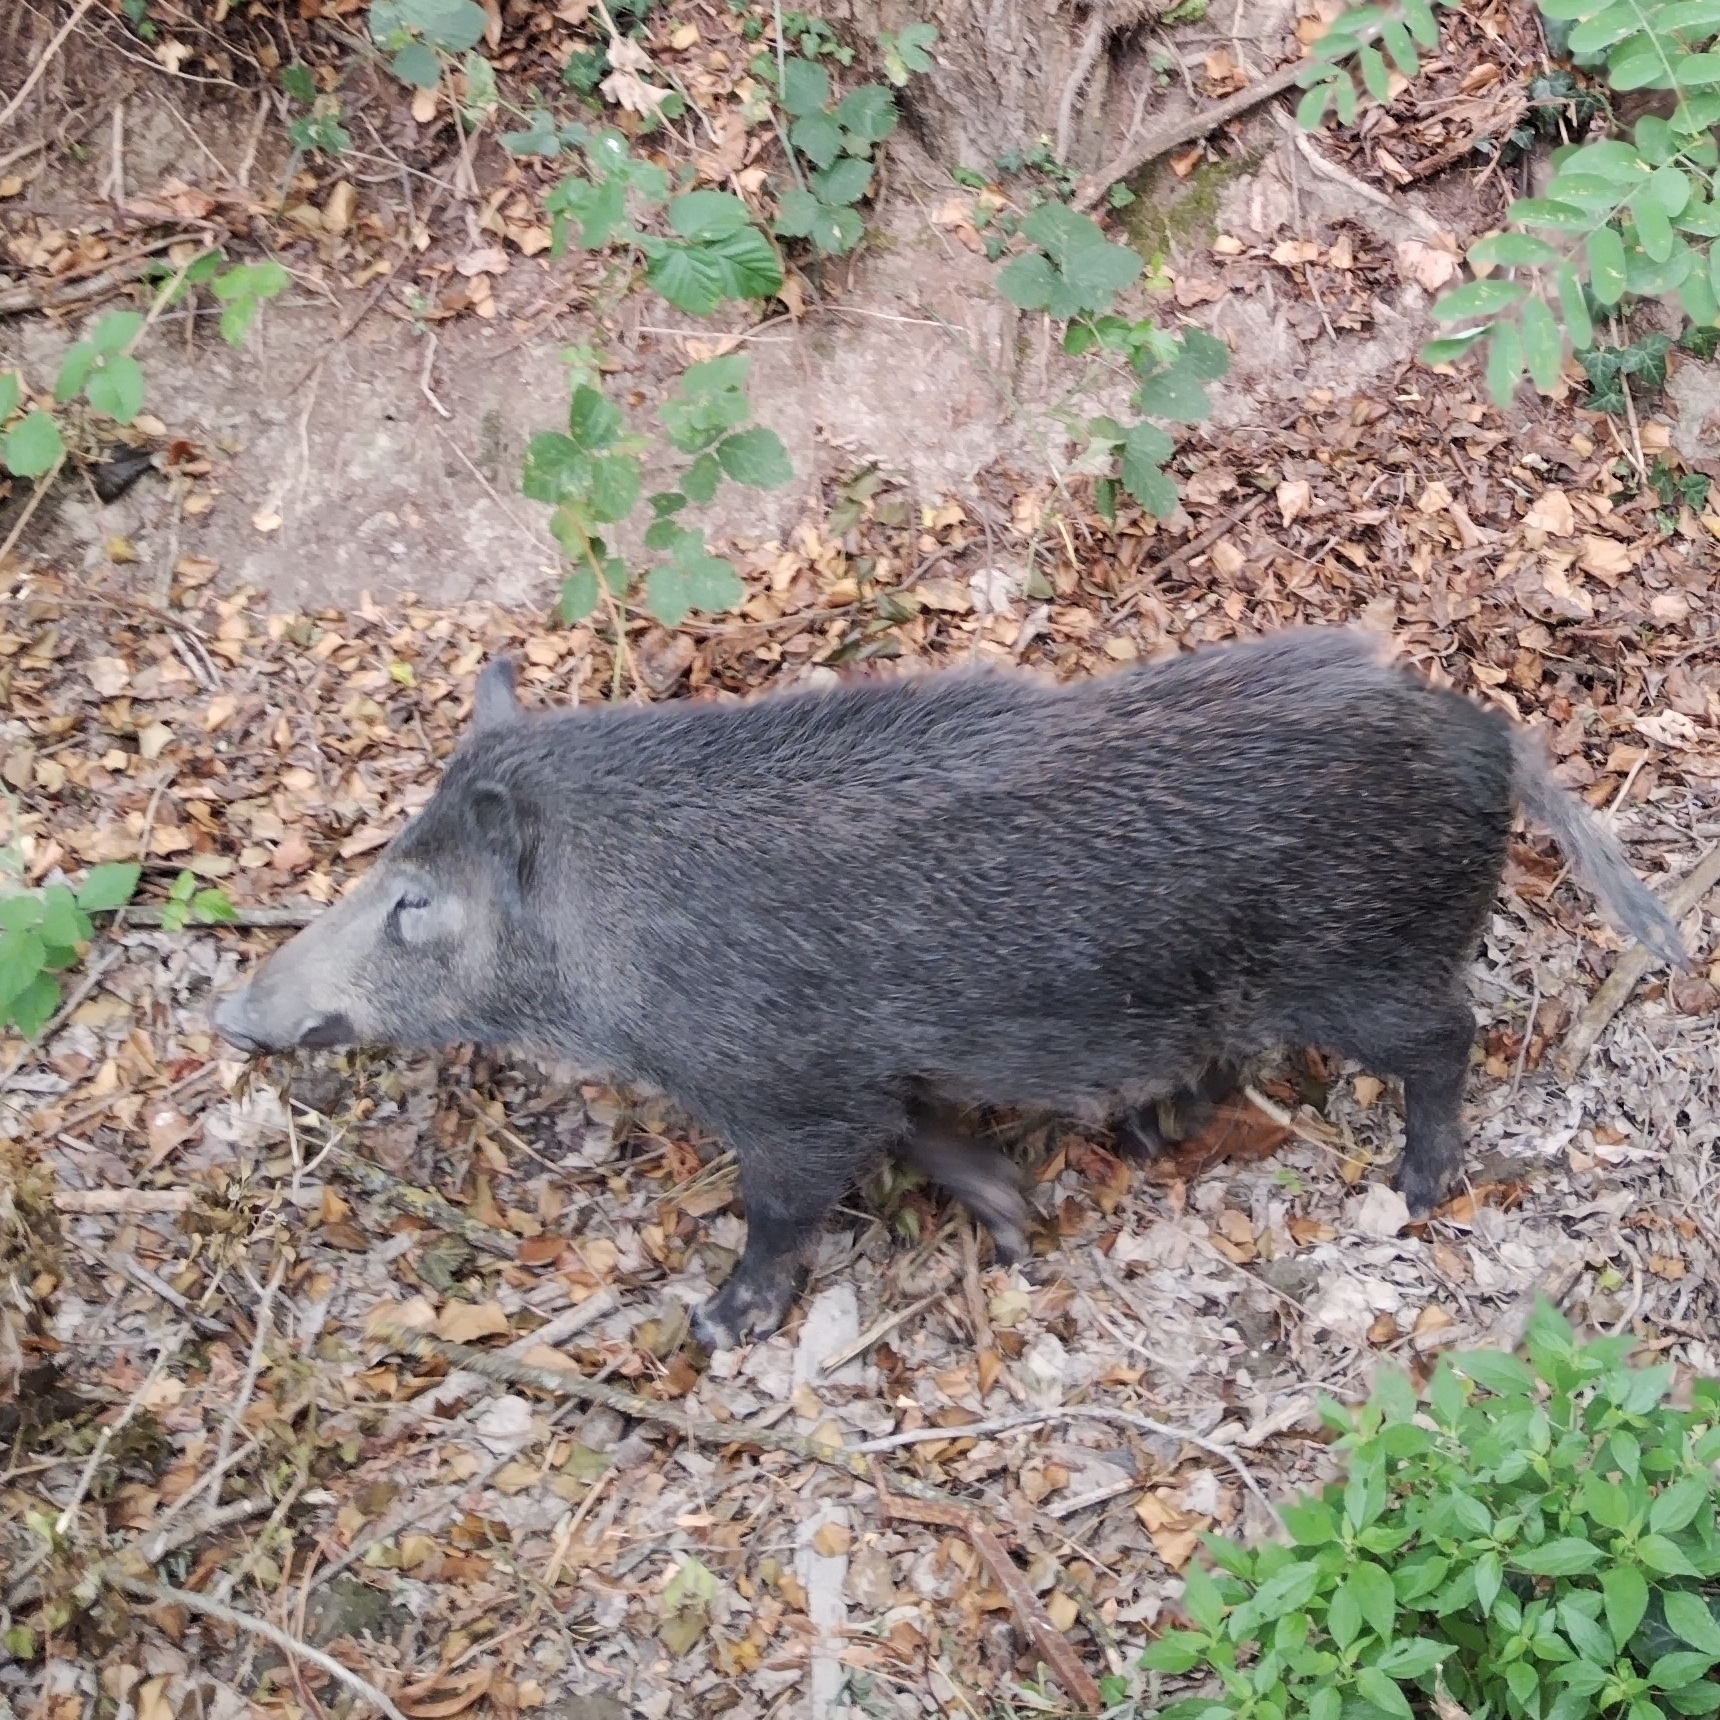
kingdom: Animalia
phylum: Chordata
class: Mammalia
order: Artiodactyla
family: Suidae
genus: Sus
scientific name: Sus scrofa
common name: Wild boar
